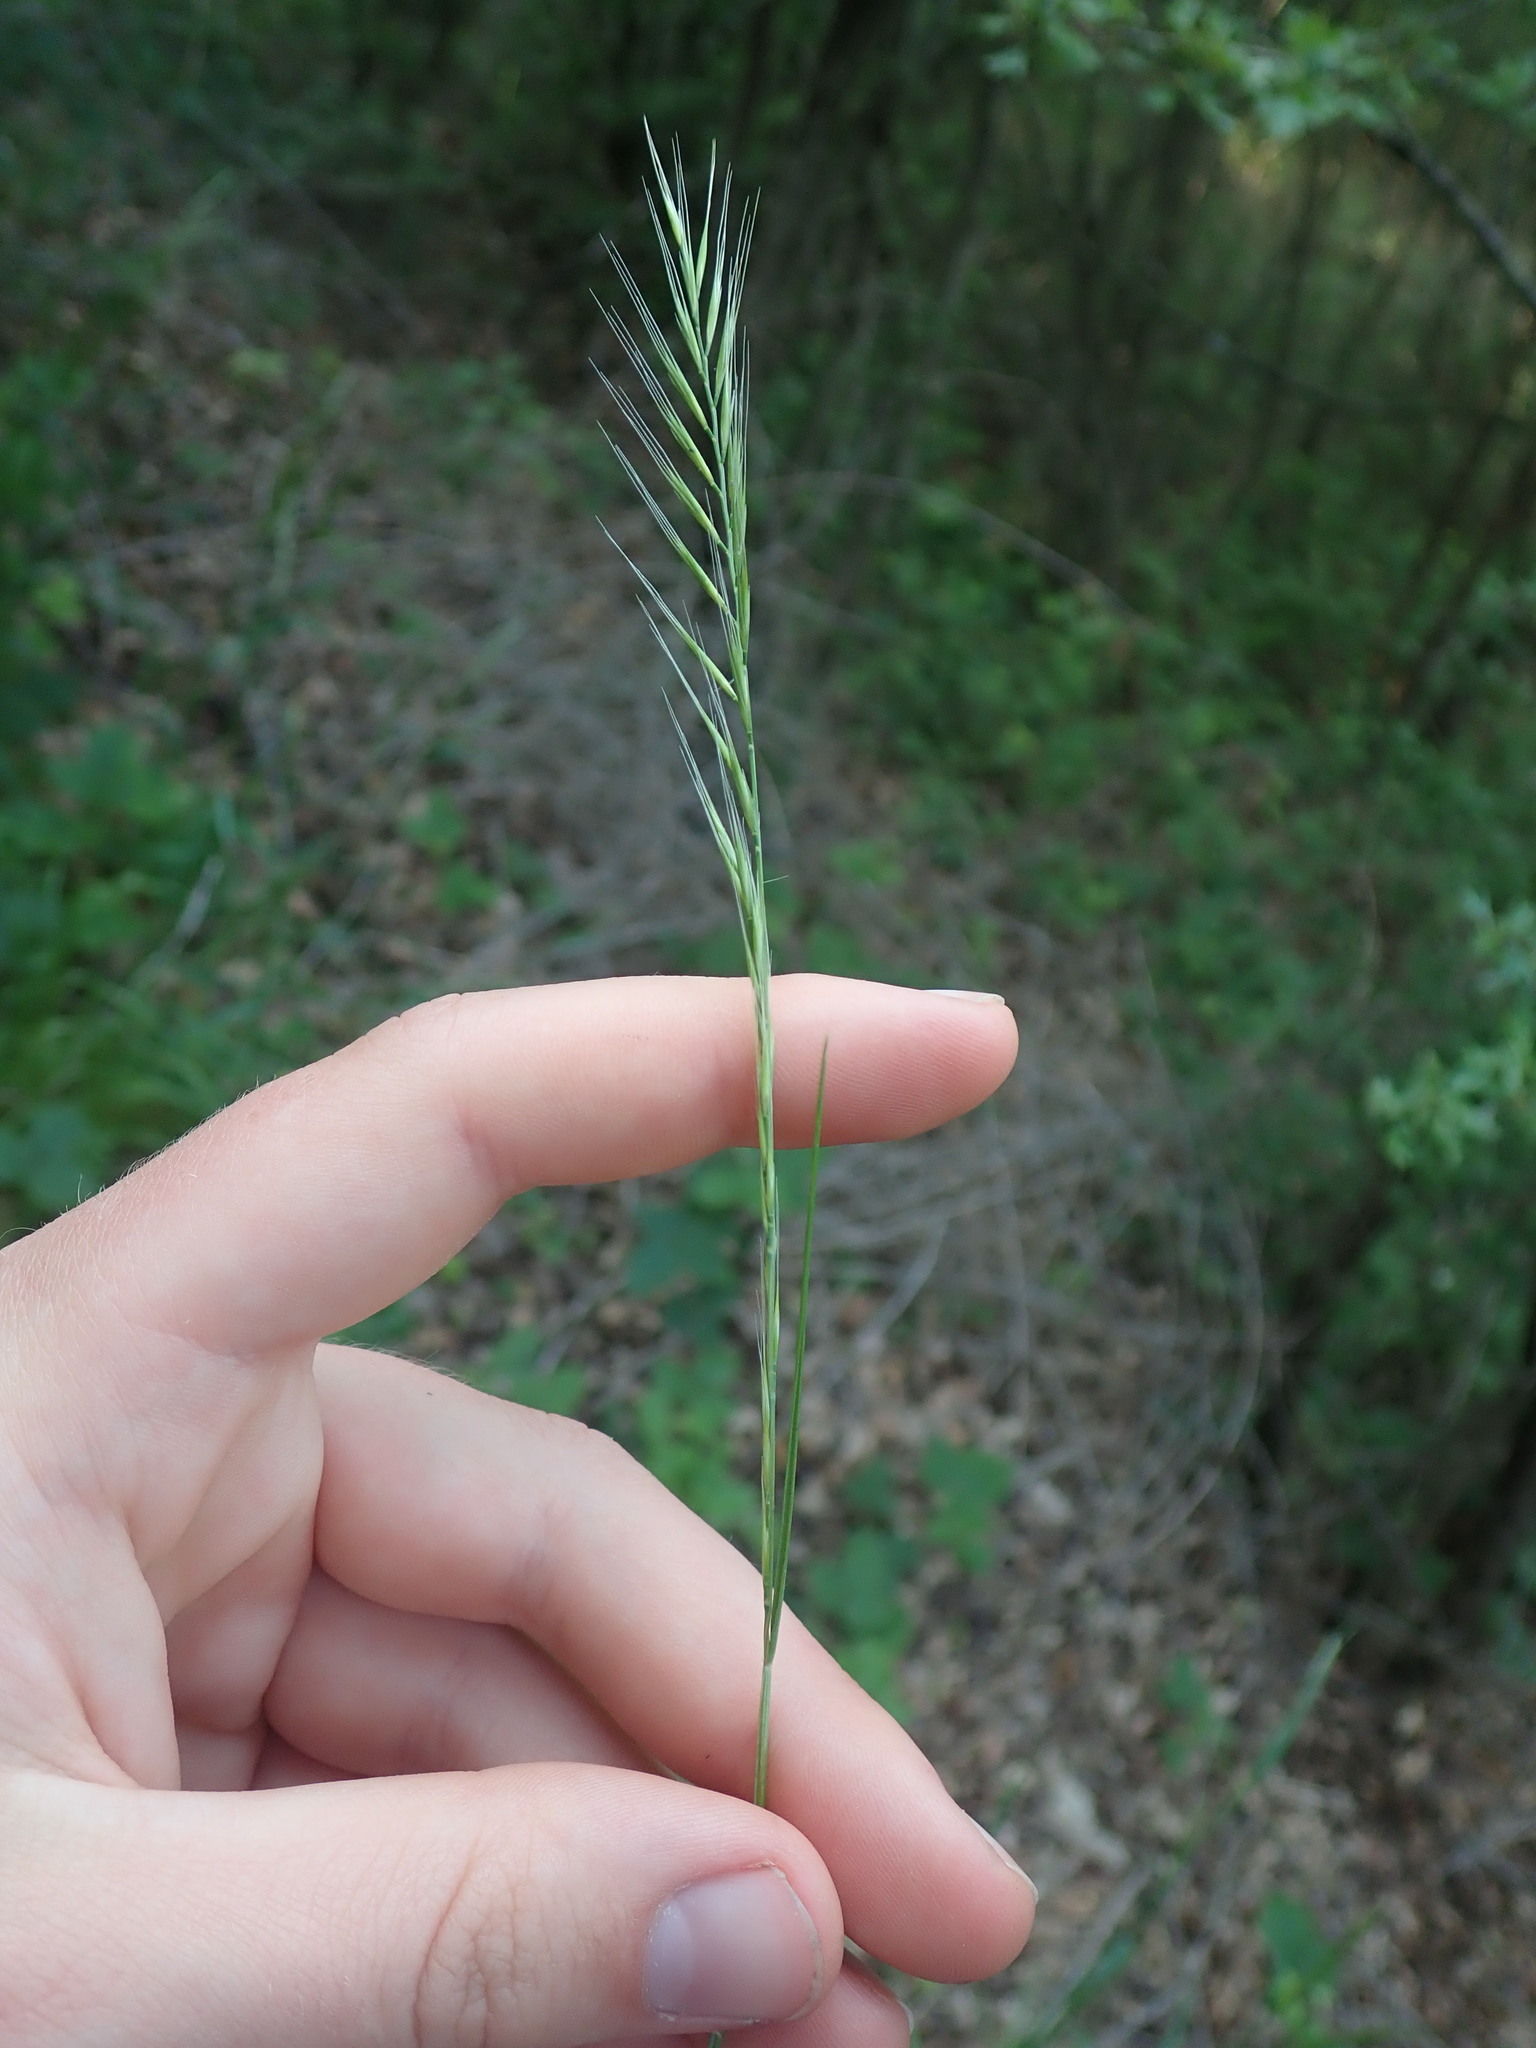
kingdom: Plantae
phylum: Tracheophyta
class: Liliopsida
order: Poales
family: Poaceae
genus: Festuca
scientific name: Festuca myuros
